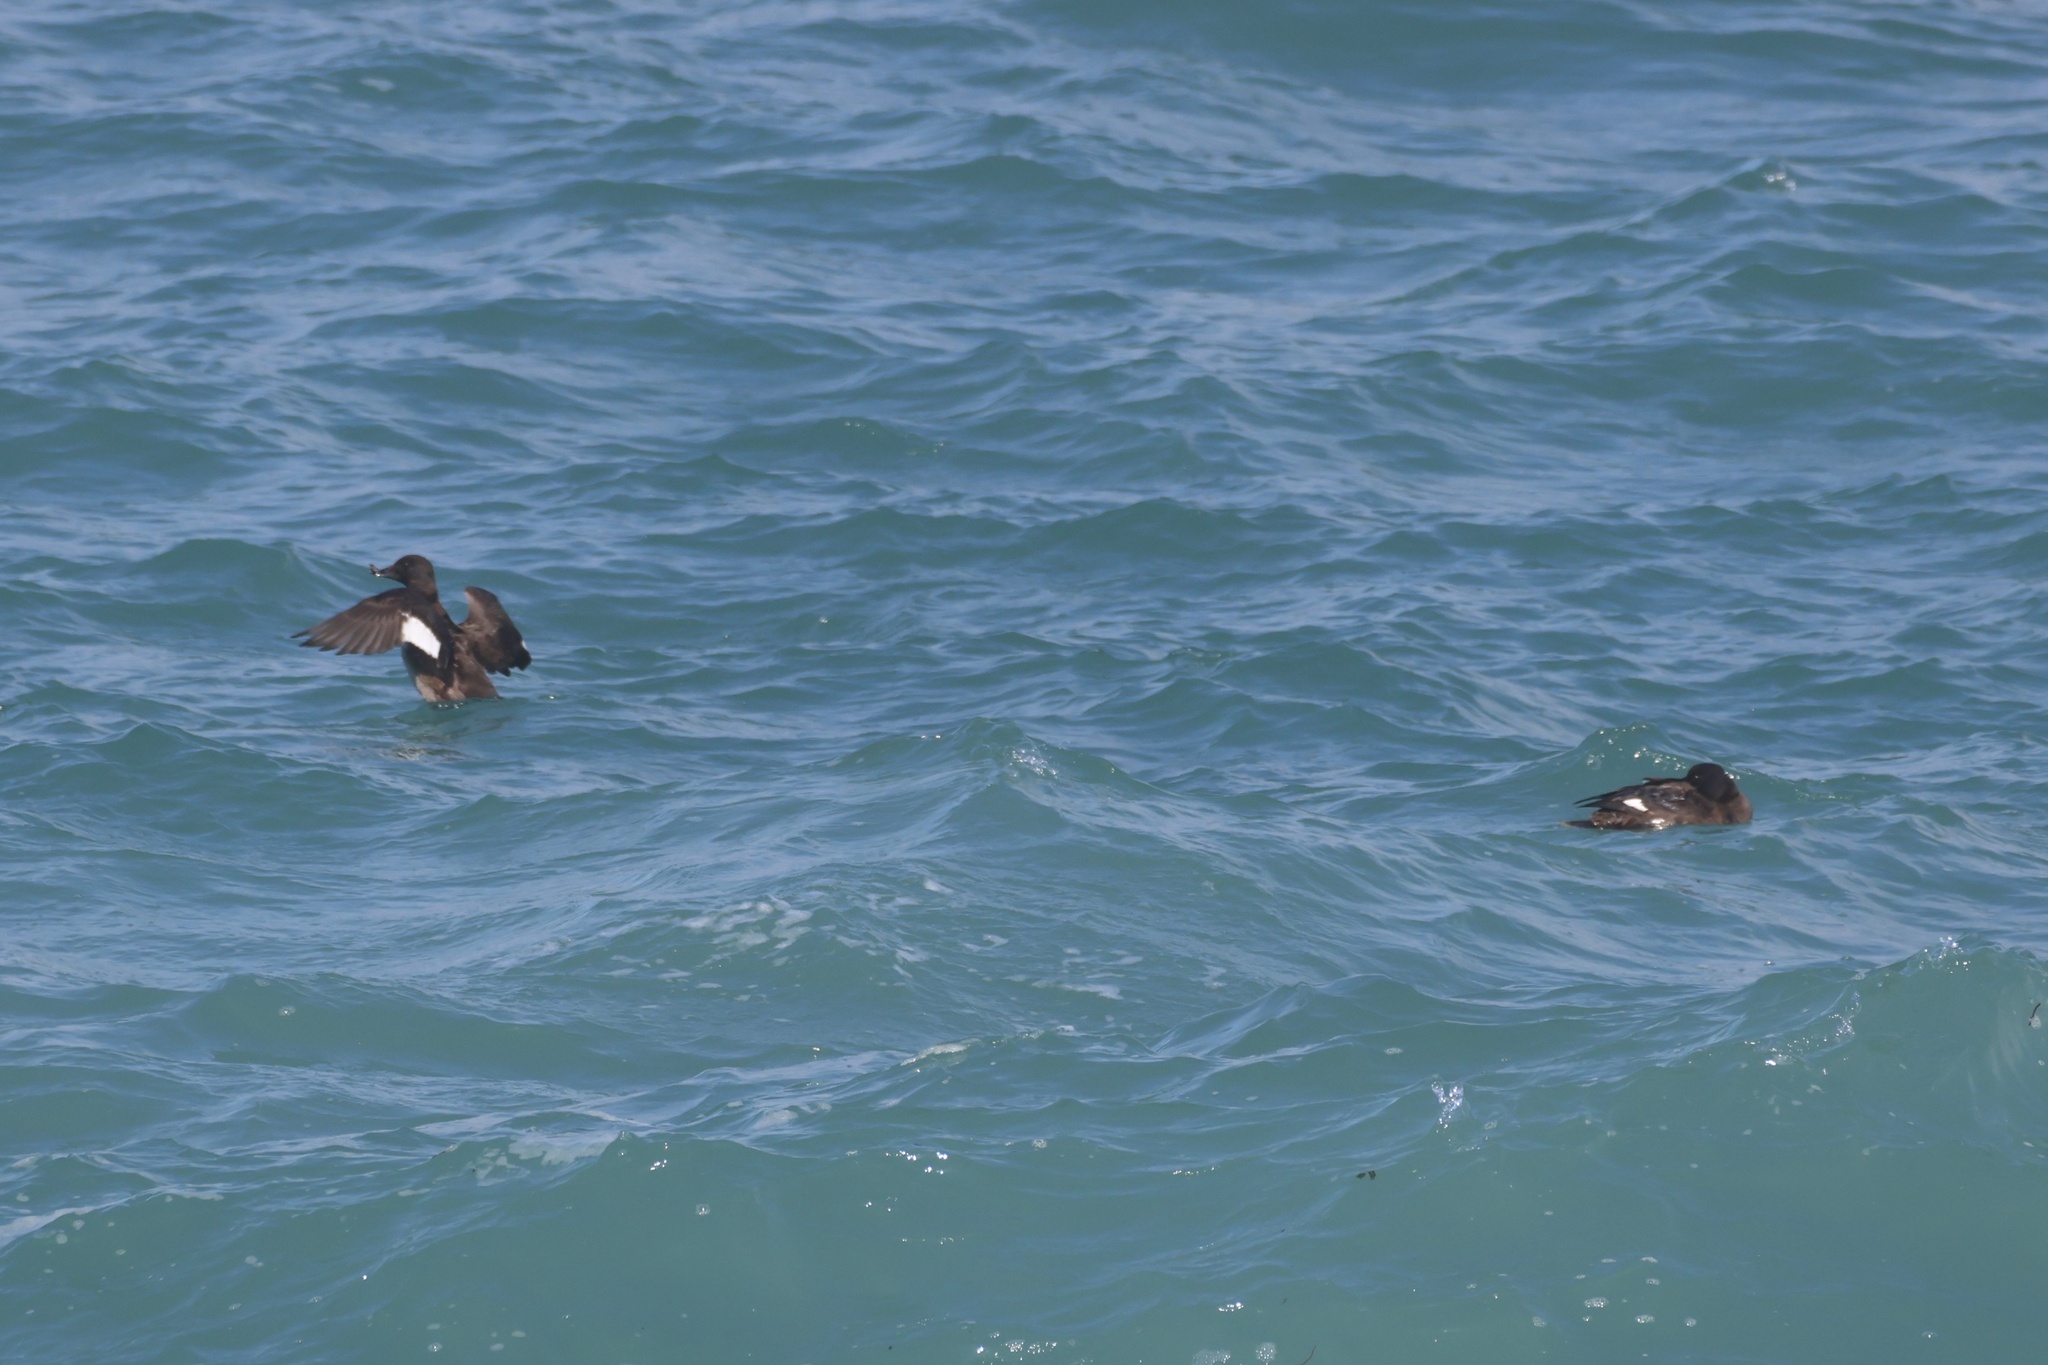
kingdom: Animalia
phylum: Chordata
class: Aves
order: Anseriformes
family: Anatidae
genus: Melanitta
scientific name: Melanitta deglandi
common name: White-winged scoter
